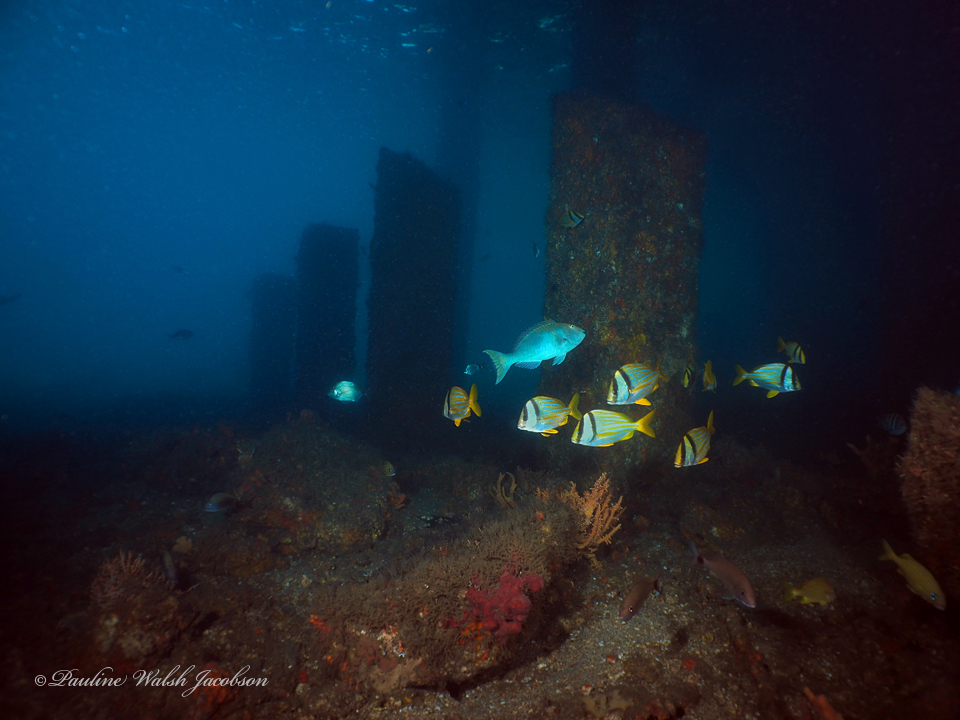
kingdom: Animalia
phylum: Chordata
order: Perciformes
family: Haemulidae
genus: Anisotremus
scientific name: Anisotremus virginicus
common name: Porkfish
